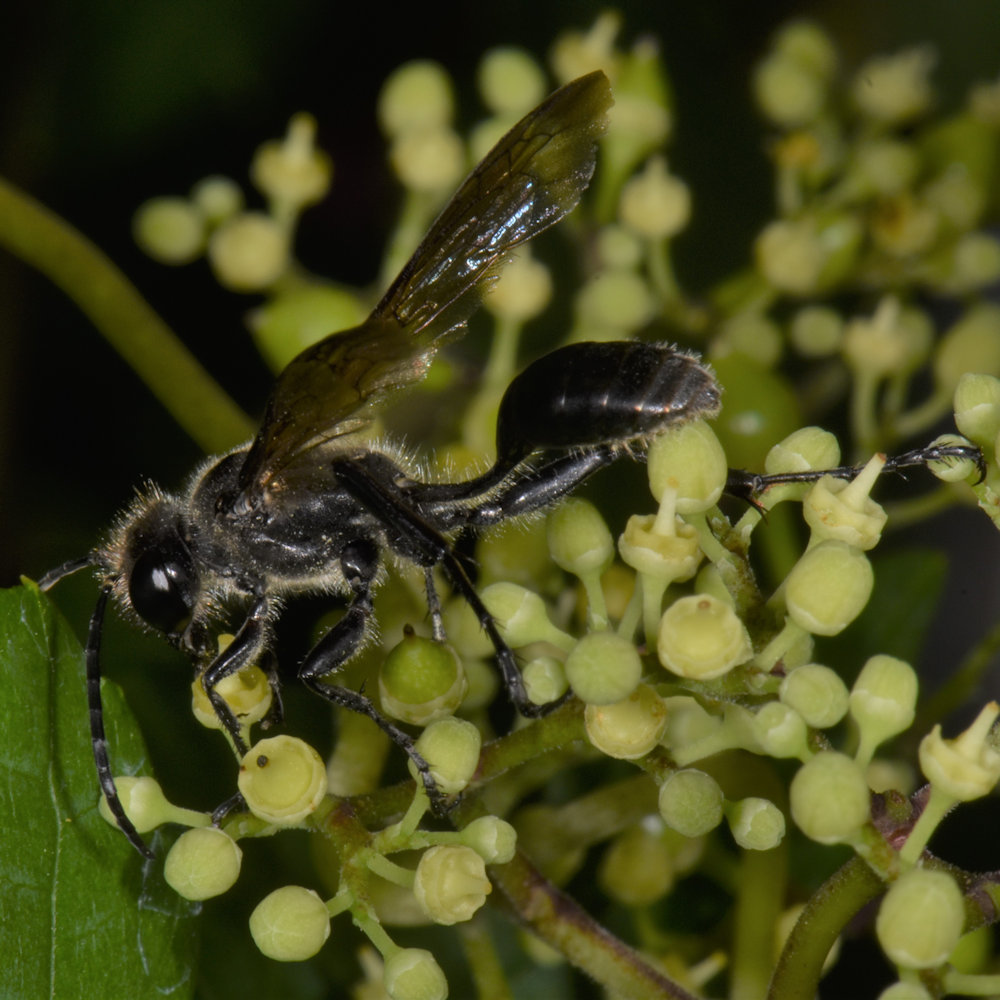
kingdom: Animalia
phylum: Arthropoda
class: Insecta
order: Hymenoptera
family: Sphecidae
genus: Isodontia
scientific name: Isodontia mexicana
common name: Mud dauber
